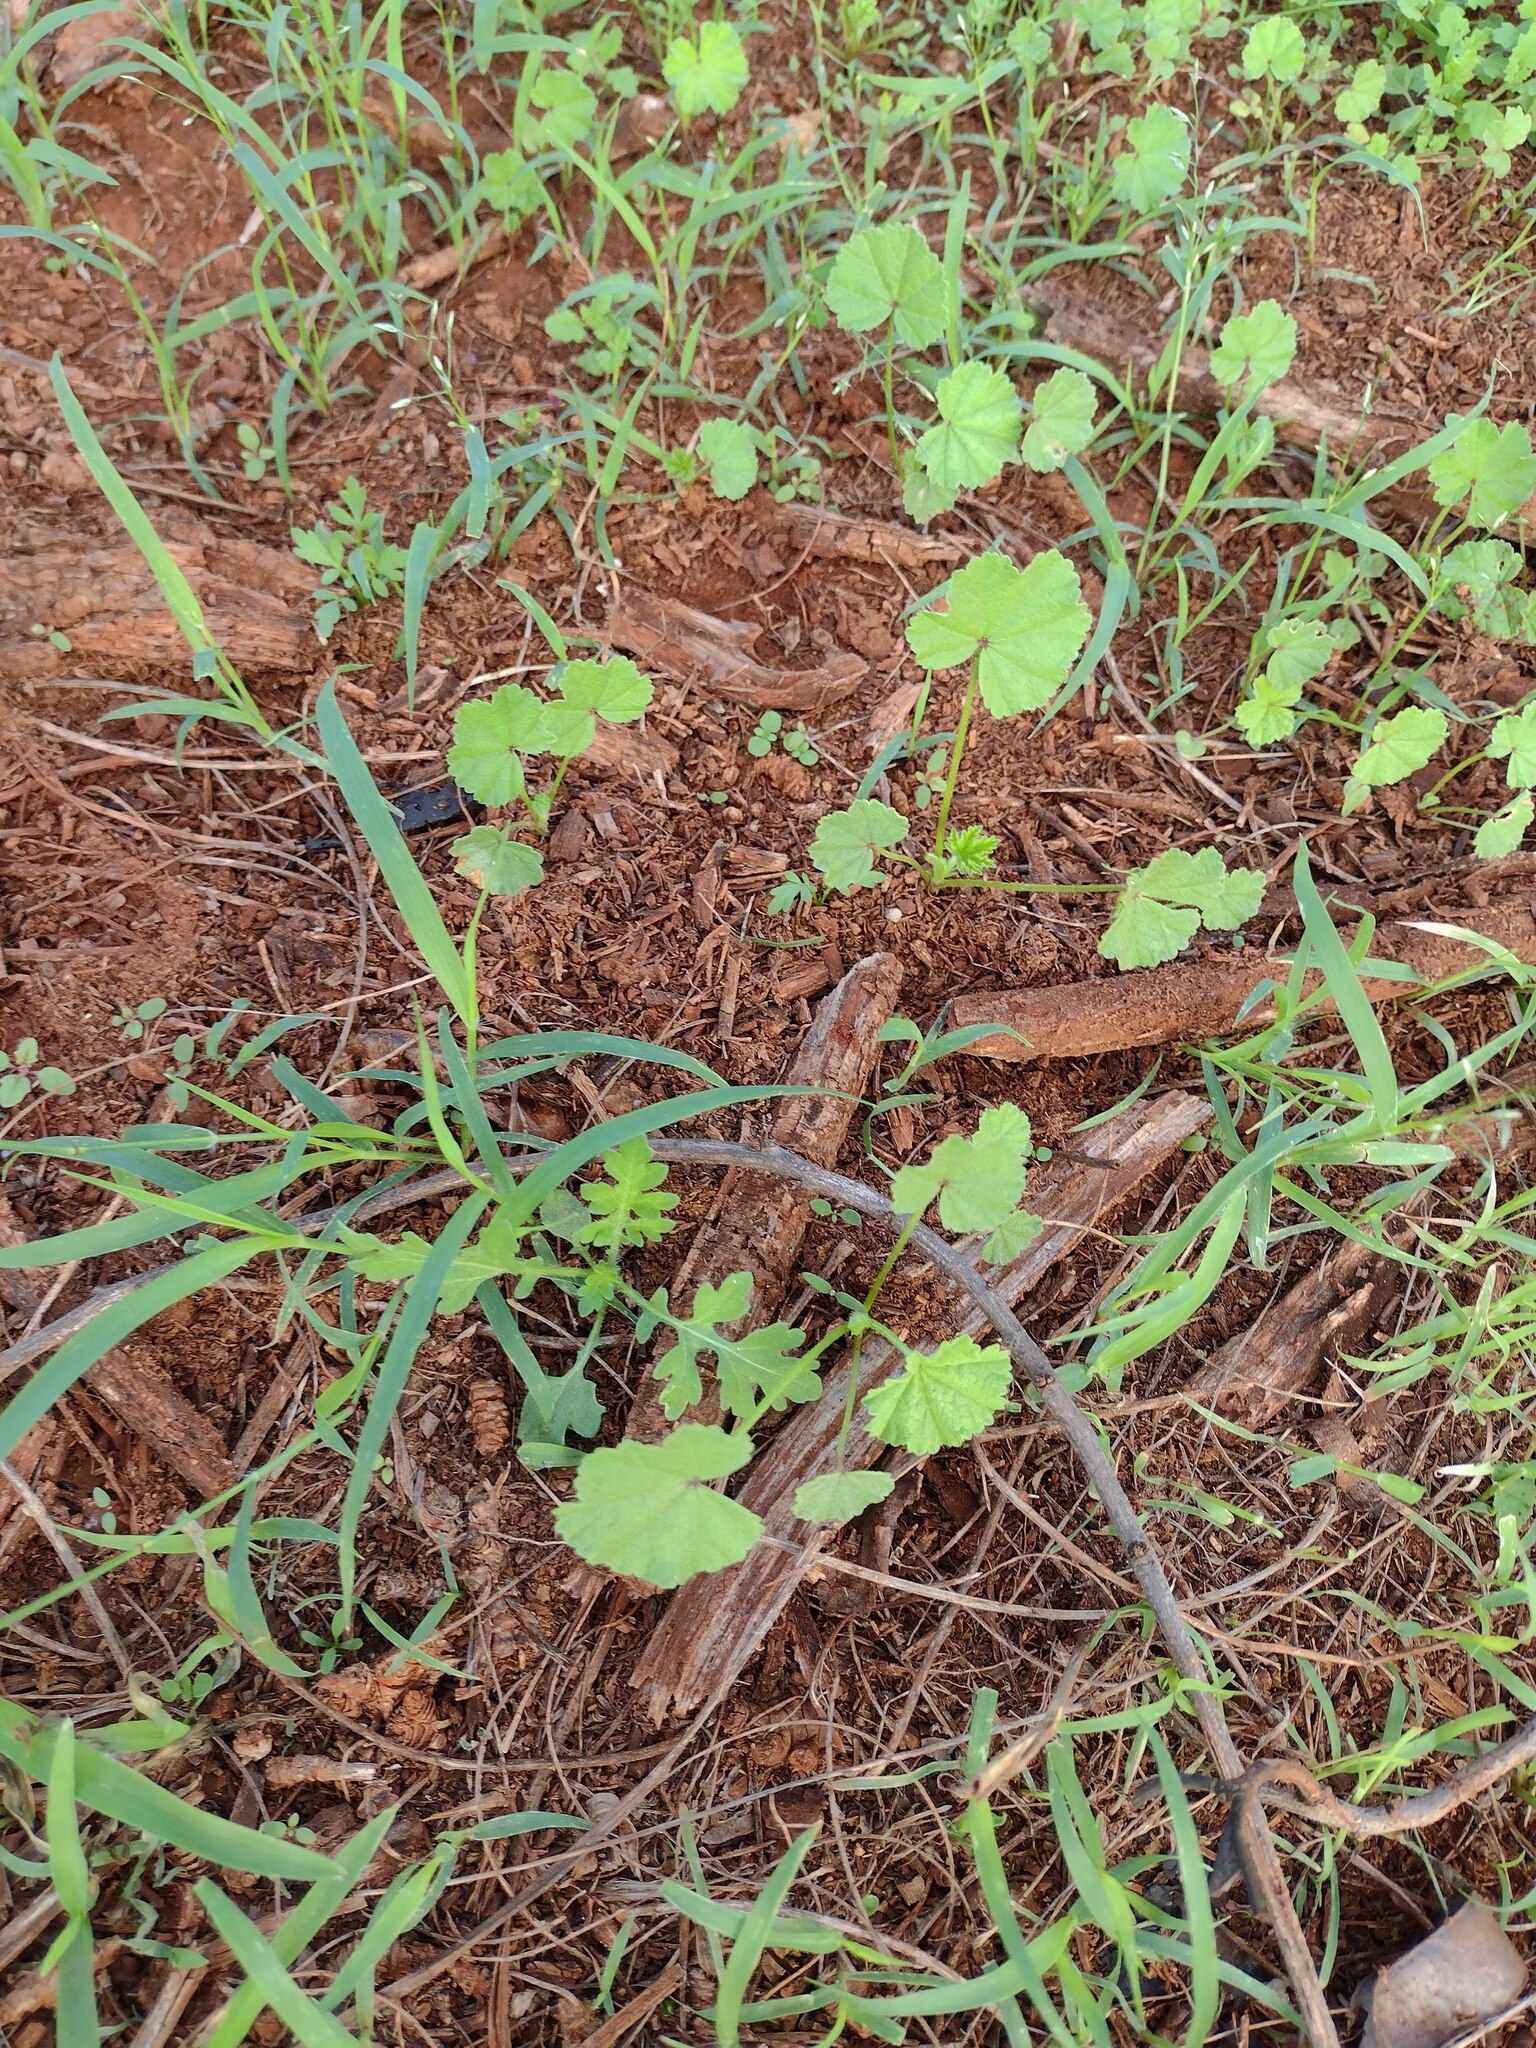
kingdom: Plantae
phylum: Tracheophyta
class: Magnoliopsida
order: Asterales
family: Asteraceae
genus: Parthenium
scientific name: Parthenium hysterophorus
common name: Santa maria feverfew
